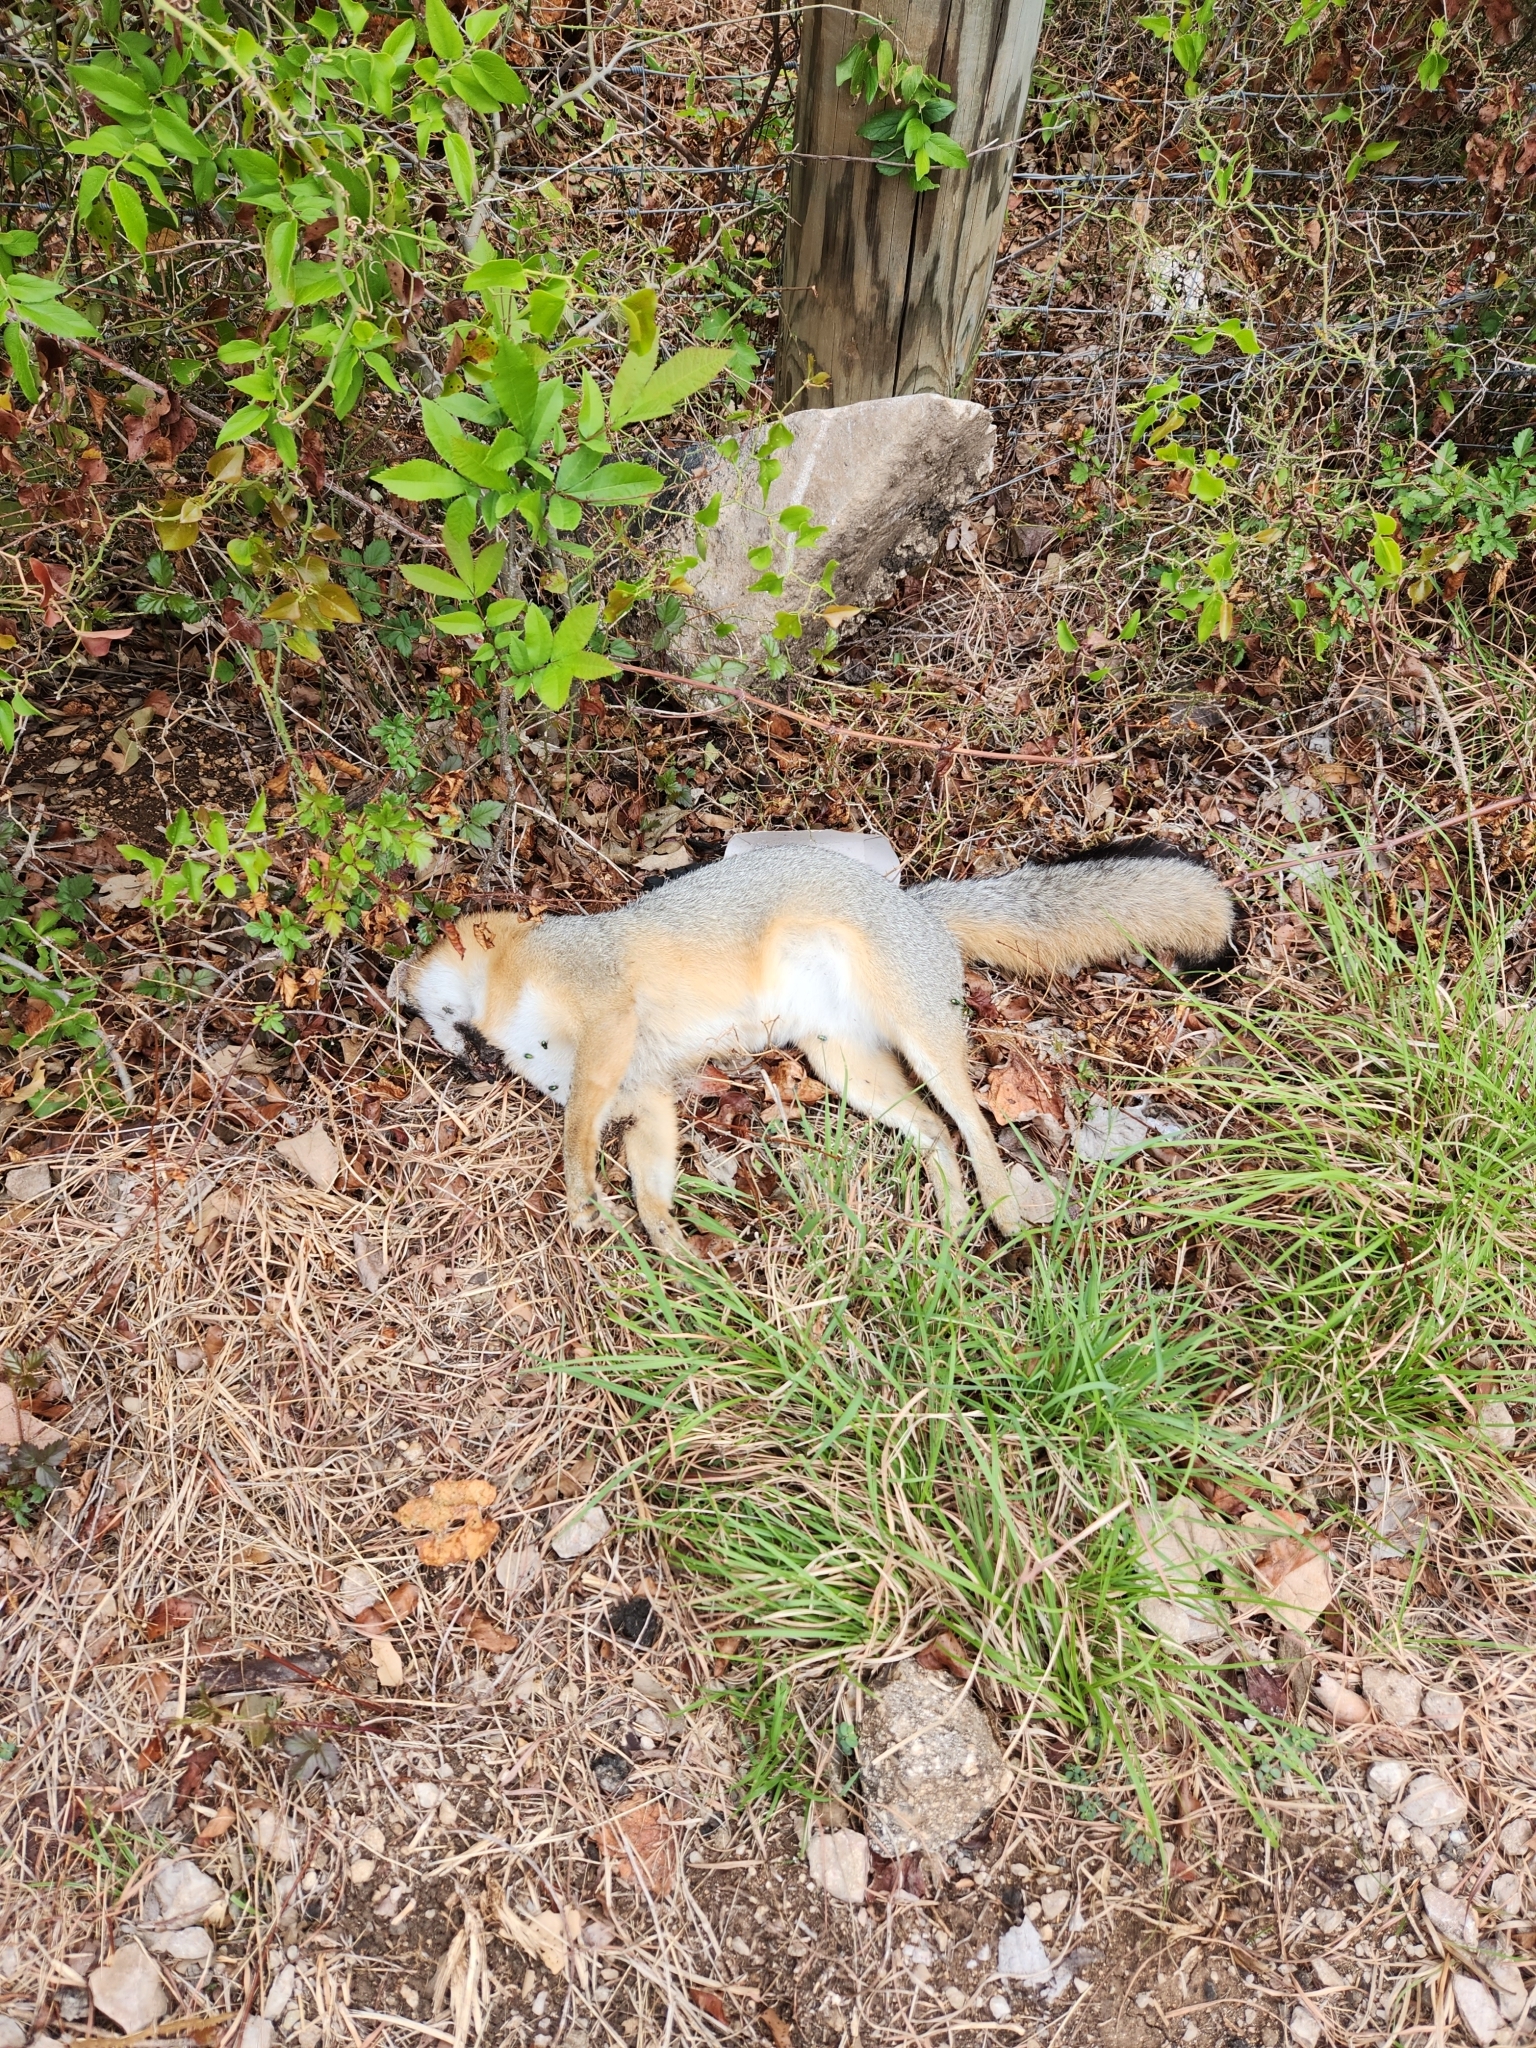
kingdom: Animalia
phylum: Chordata
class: Mammalia
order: Carnivora
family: Canidae
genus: Urocyon
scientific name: Urocyon cinereoargenteus
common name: Gray fox
